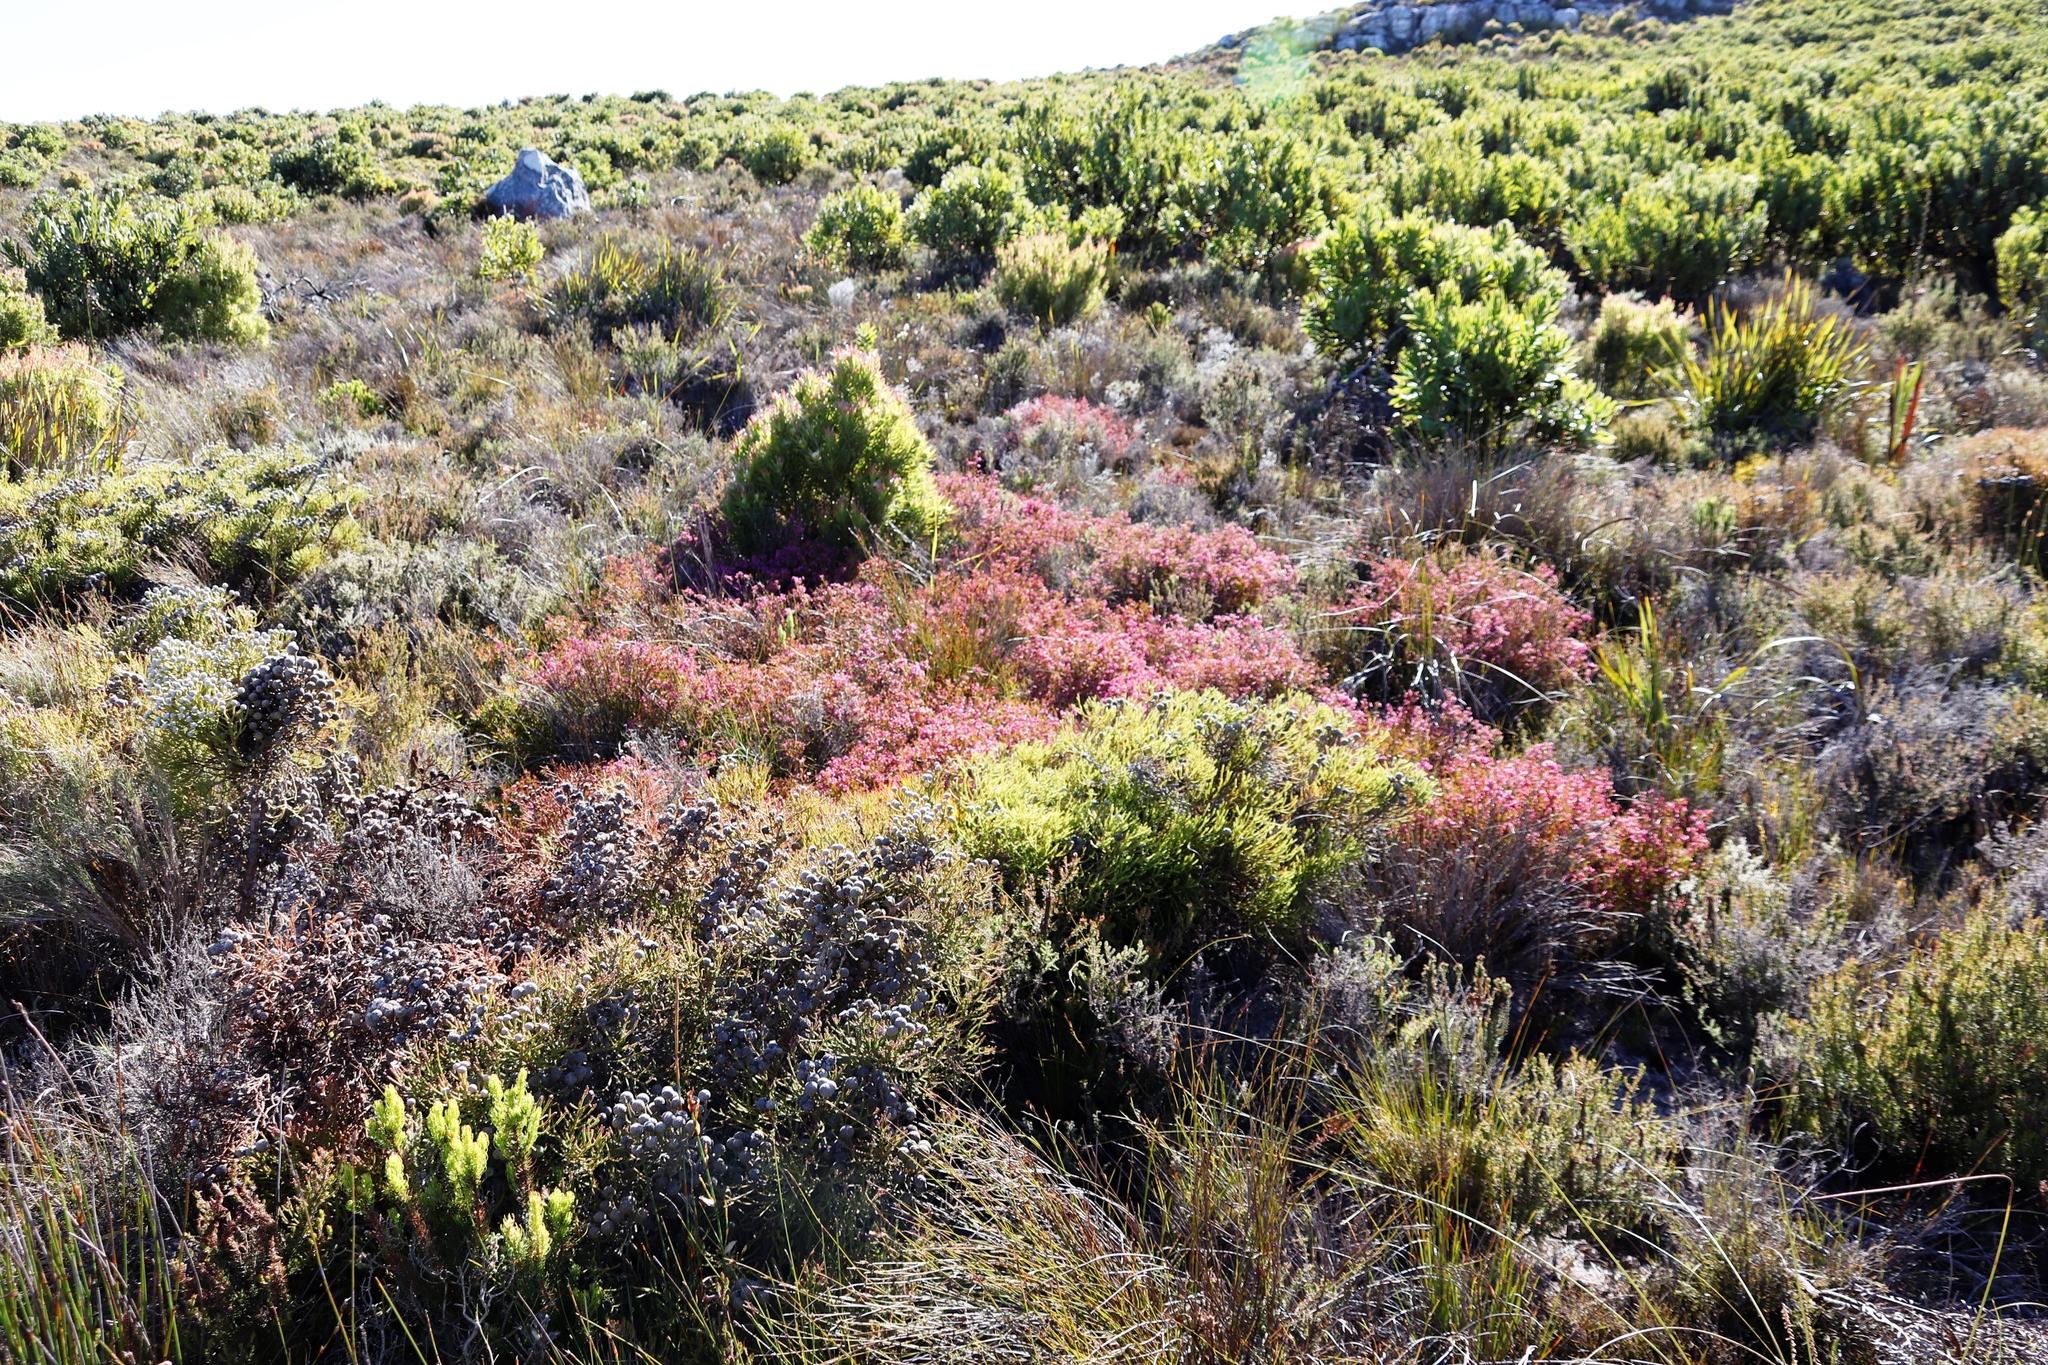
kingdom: Plantae
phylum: Tracheophyta
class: Magnoliopsida
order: Ericales
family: Ericaceae
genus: Erica
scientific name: Erica multumbellifera
